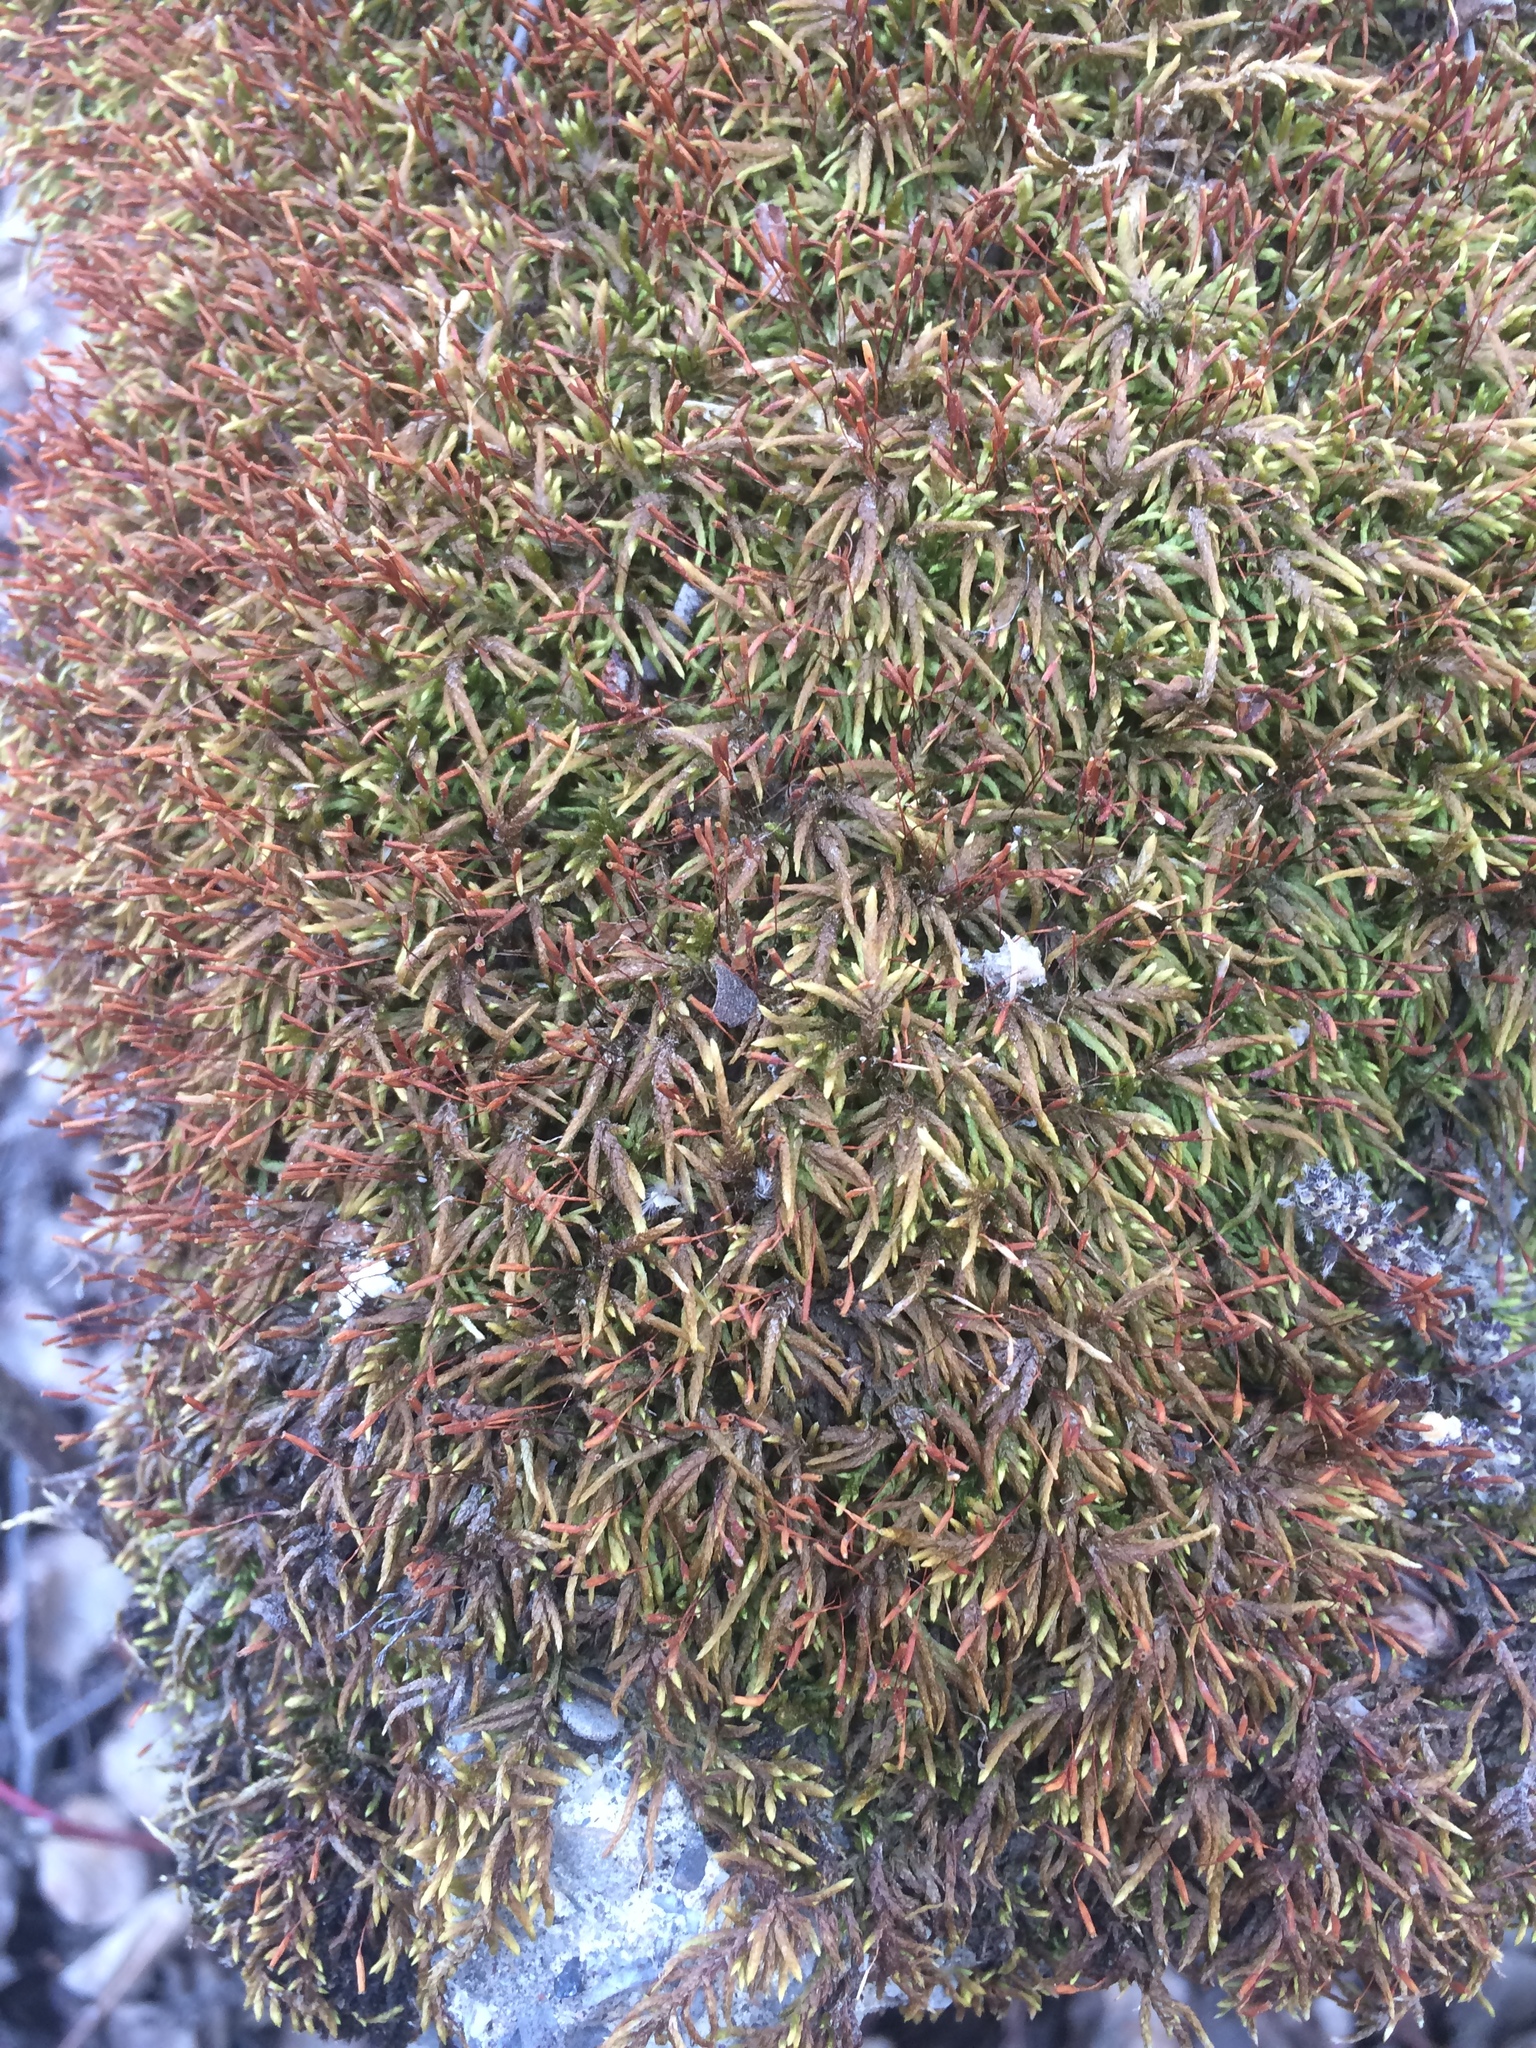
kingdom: Plantae
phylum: Bryophyta
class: Bryopsida
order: Hypnales
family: Entodontaceae
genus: Entodon
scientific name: Entodon seductrix
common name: Round-stemmed entodon moss
